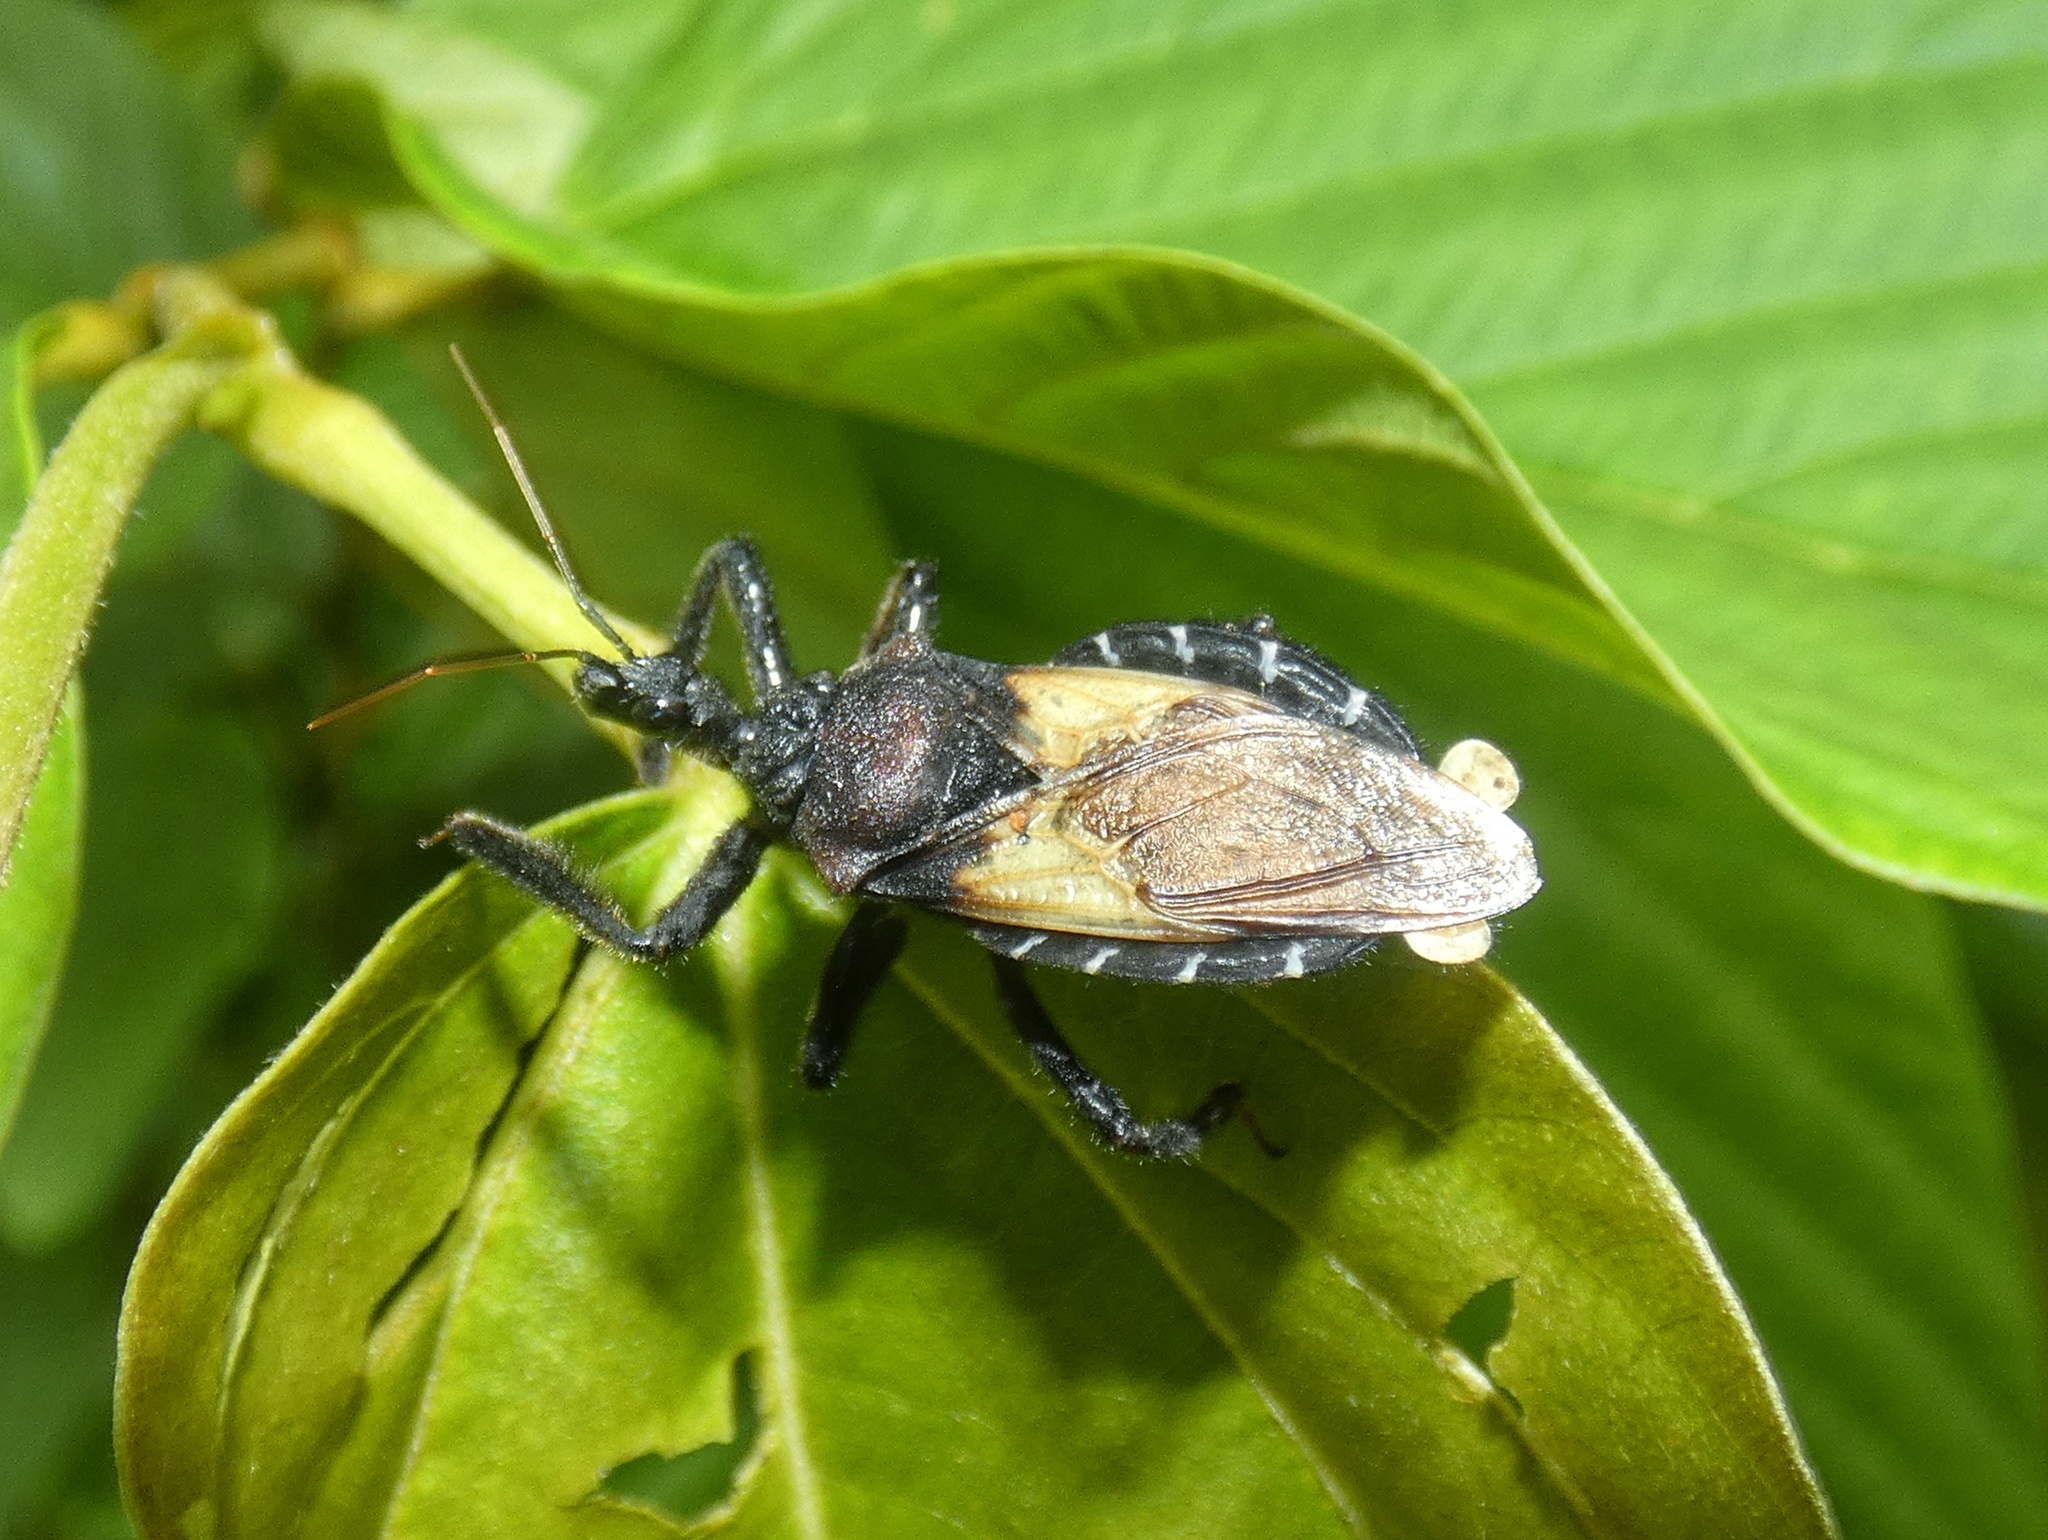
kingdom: Animalia
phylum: Arthropoda
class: Insecta
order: Hemiptera
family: Reduviidae
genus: Apiomerus
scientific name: Apiomerus vexillarius
